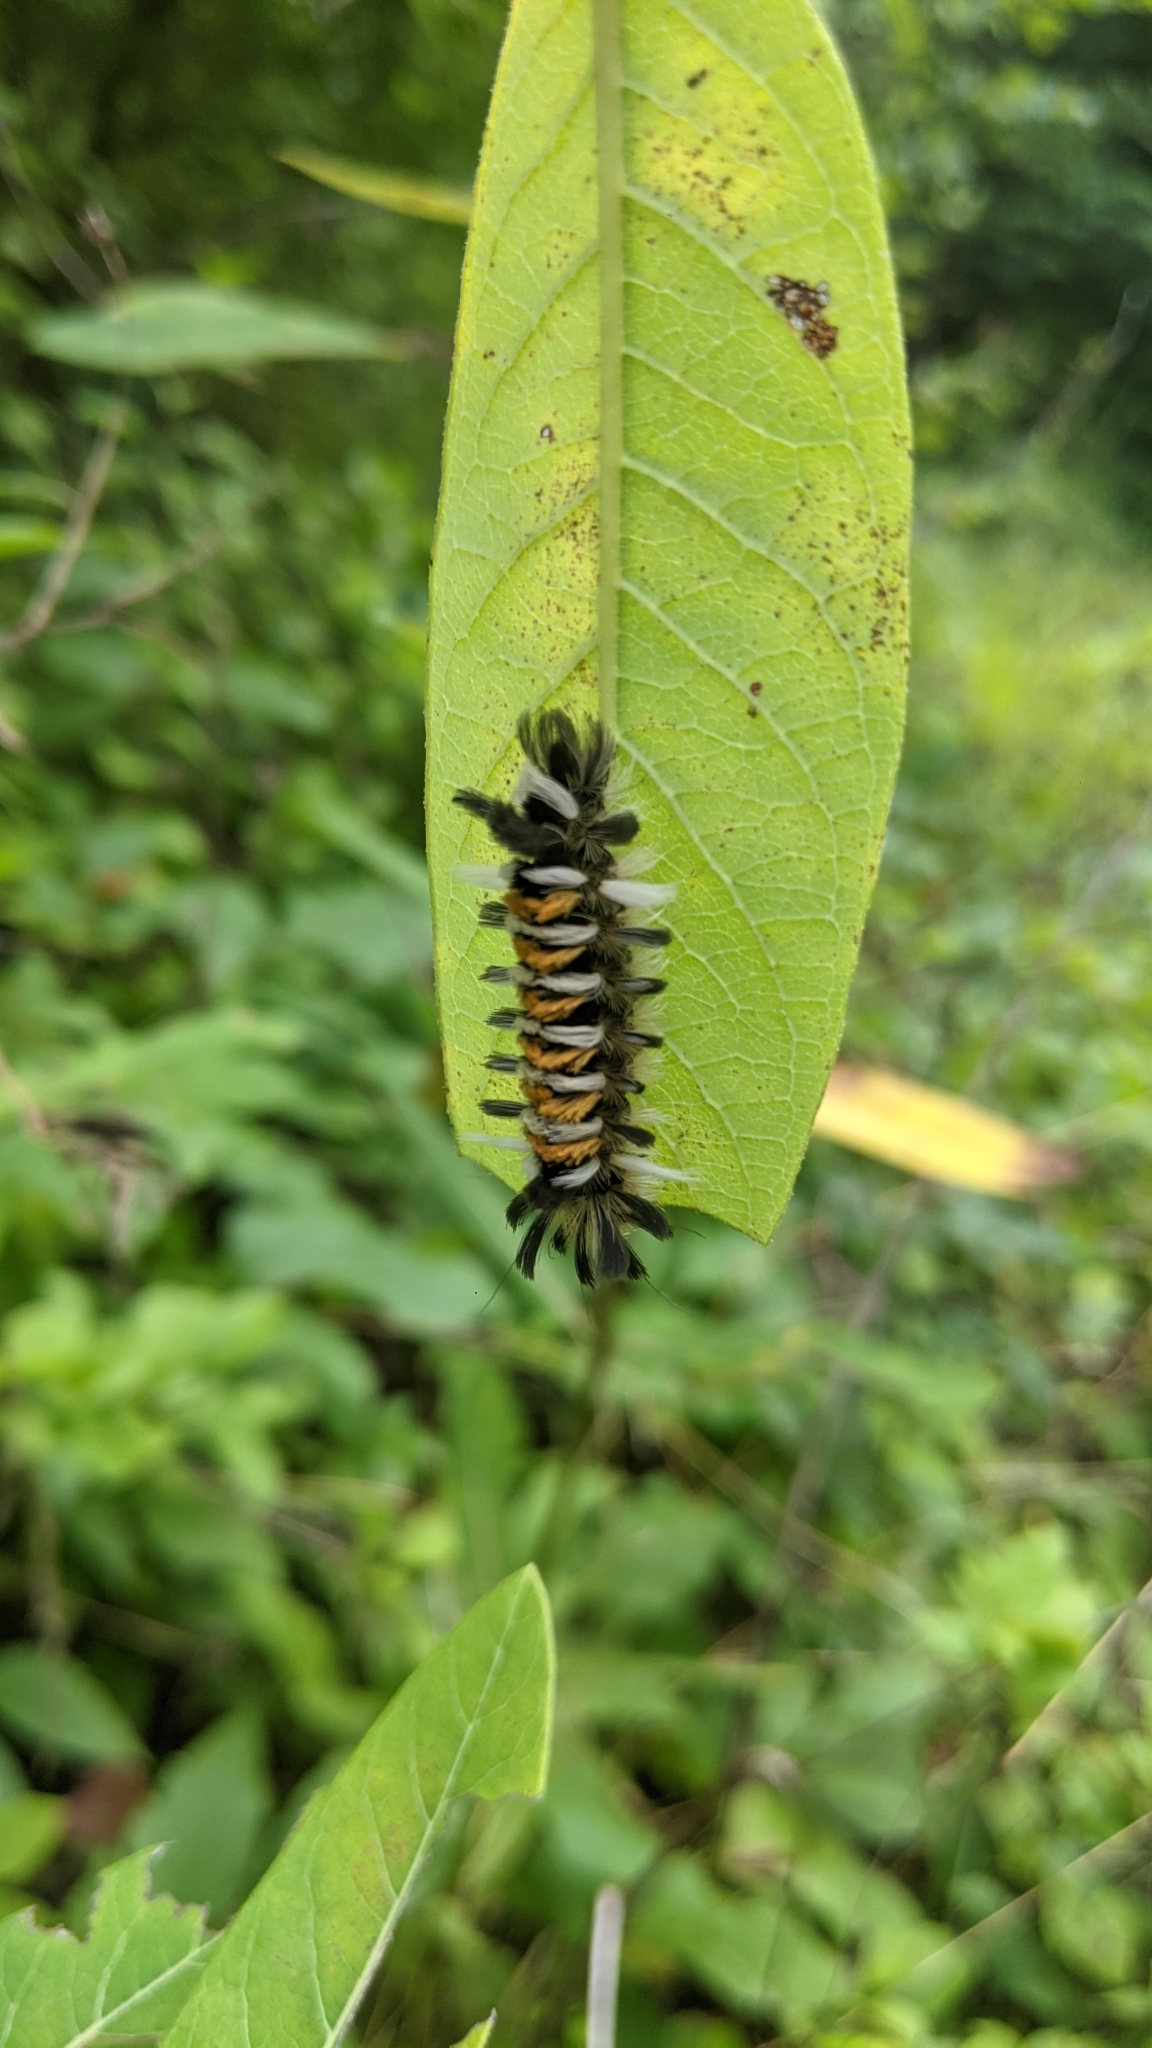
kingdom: Animalia
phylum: Arthropoda
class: Insecta
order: Lepidoptera
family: Erebidae
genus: Euchaetes
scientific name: Euchaetes egle
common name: Milkweed tussock moth
